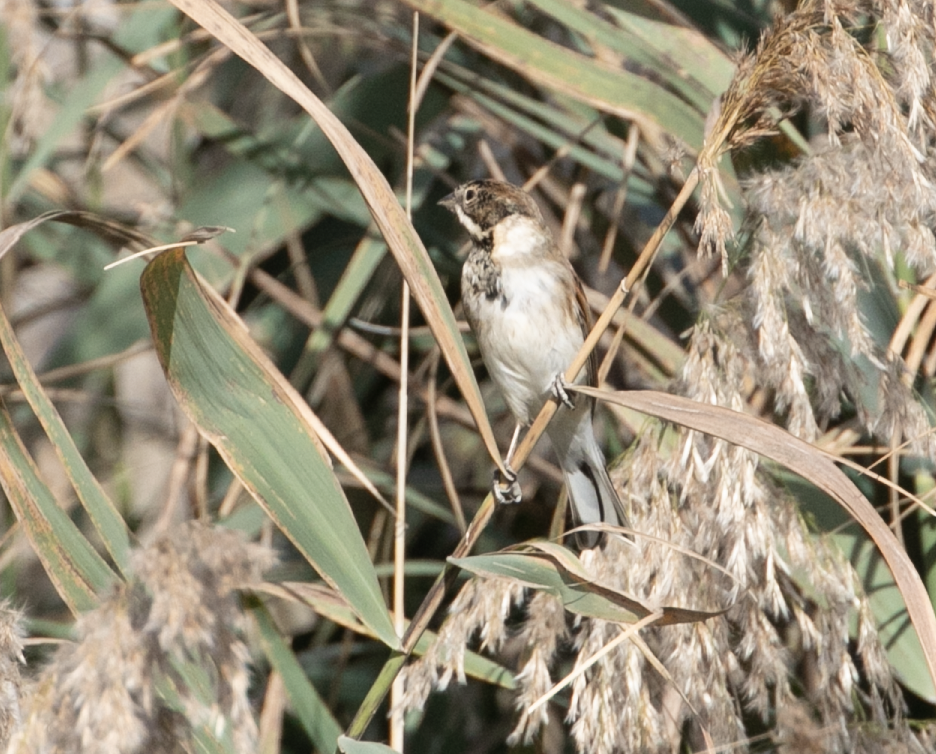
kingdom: Animalia
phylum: Chordata
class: Aves
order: Passeriformes
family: Emberizidae
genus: Emberiza
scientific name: Emberiza schoeniclus
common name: Reed bunting
